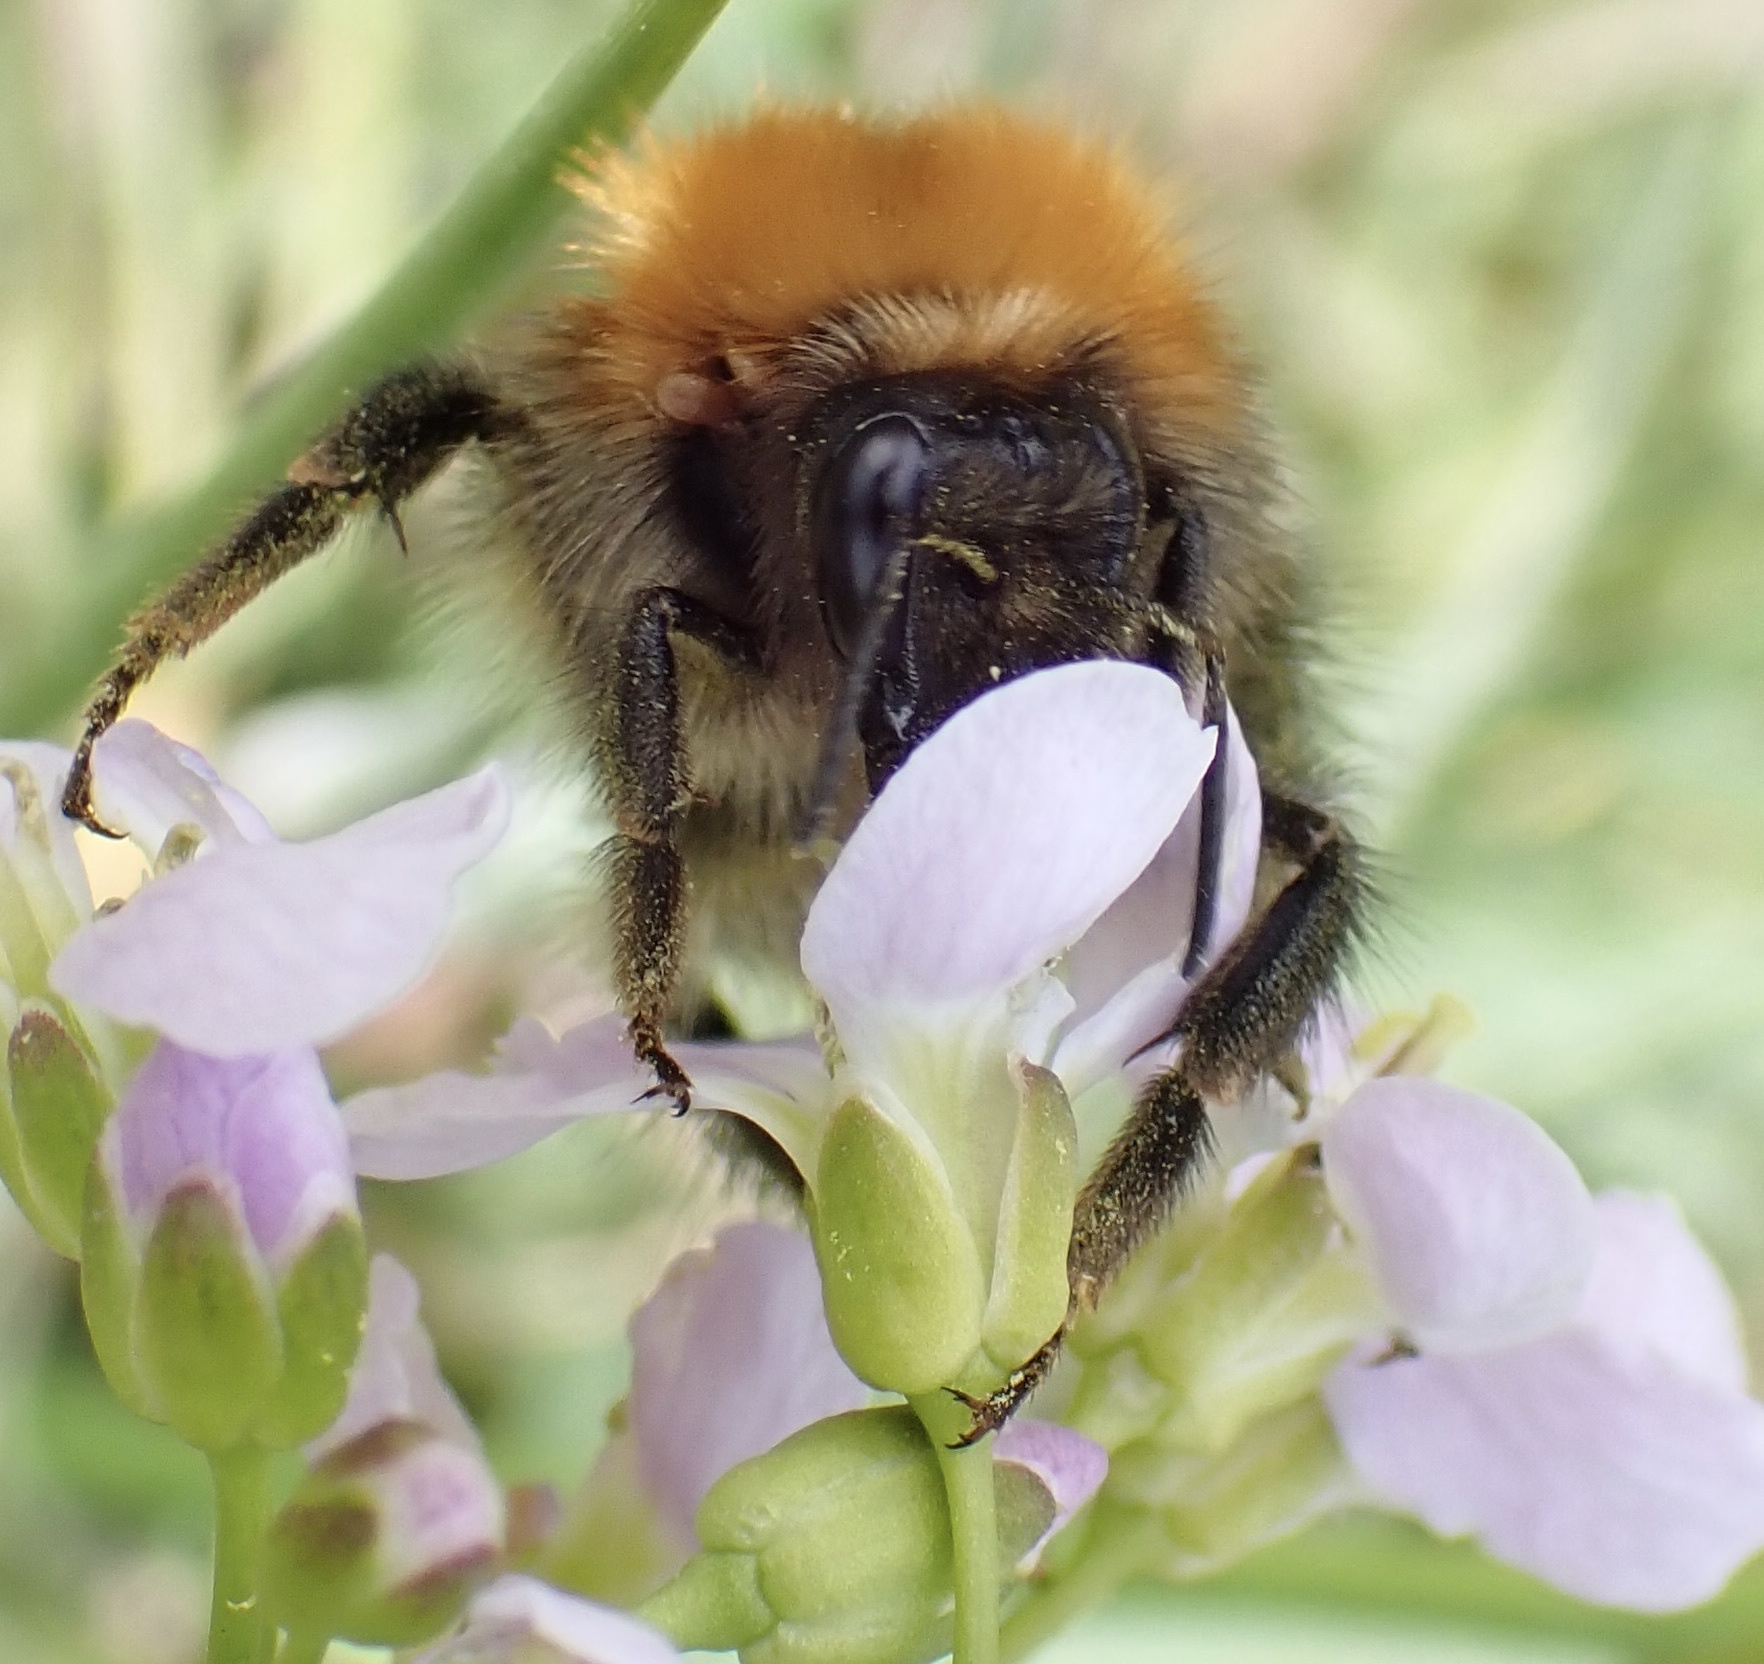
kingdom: Animalia
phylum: Arthropoda
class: Insecta
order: Hymenoptera
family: Apidae
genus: Bombus
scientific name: Bombus pascuorum
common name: Common carder bee
